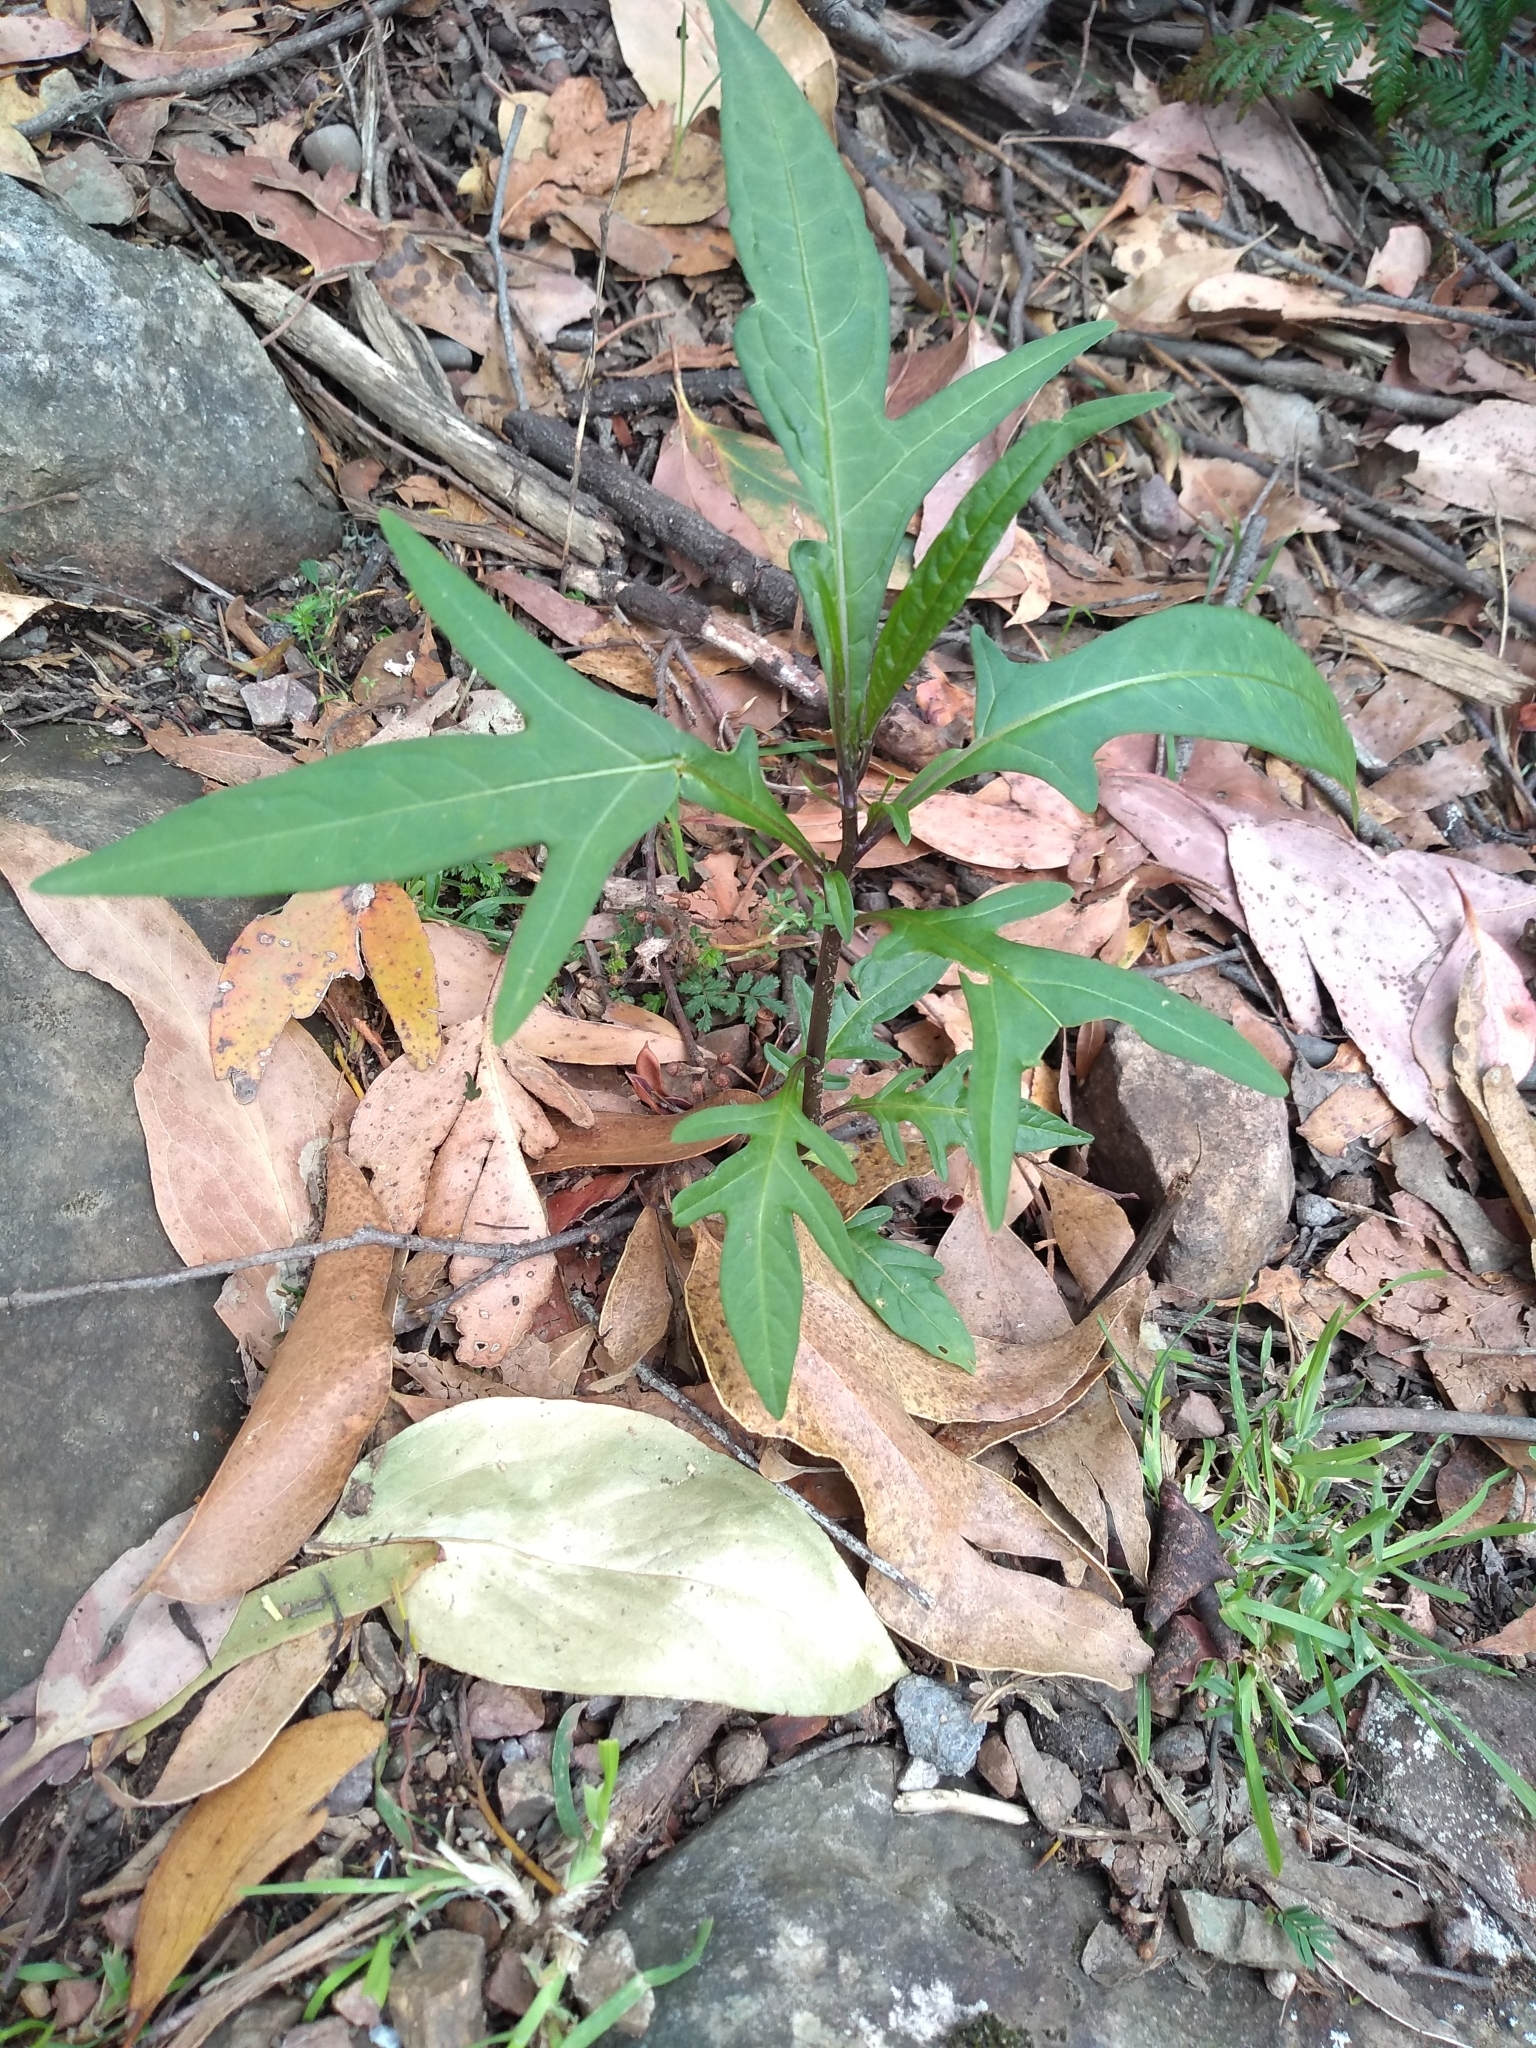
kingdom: Plantae
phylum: Tracheophyta
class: Magnoliopsida
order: Solanales
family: Solanaceae
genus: Solanum
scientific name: Solanum laciniatum
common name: Kangaroo-apple
